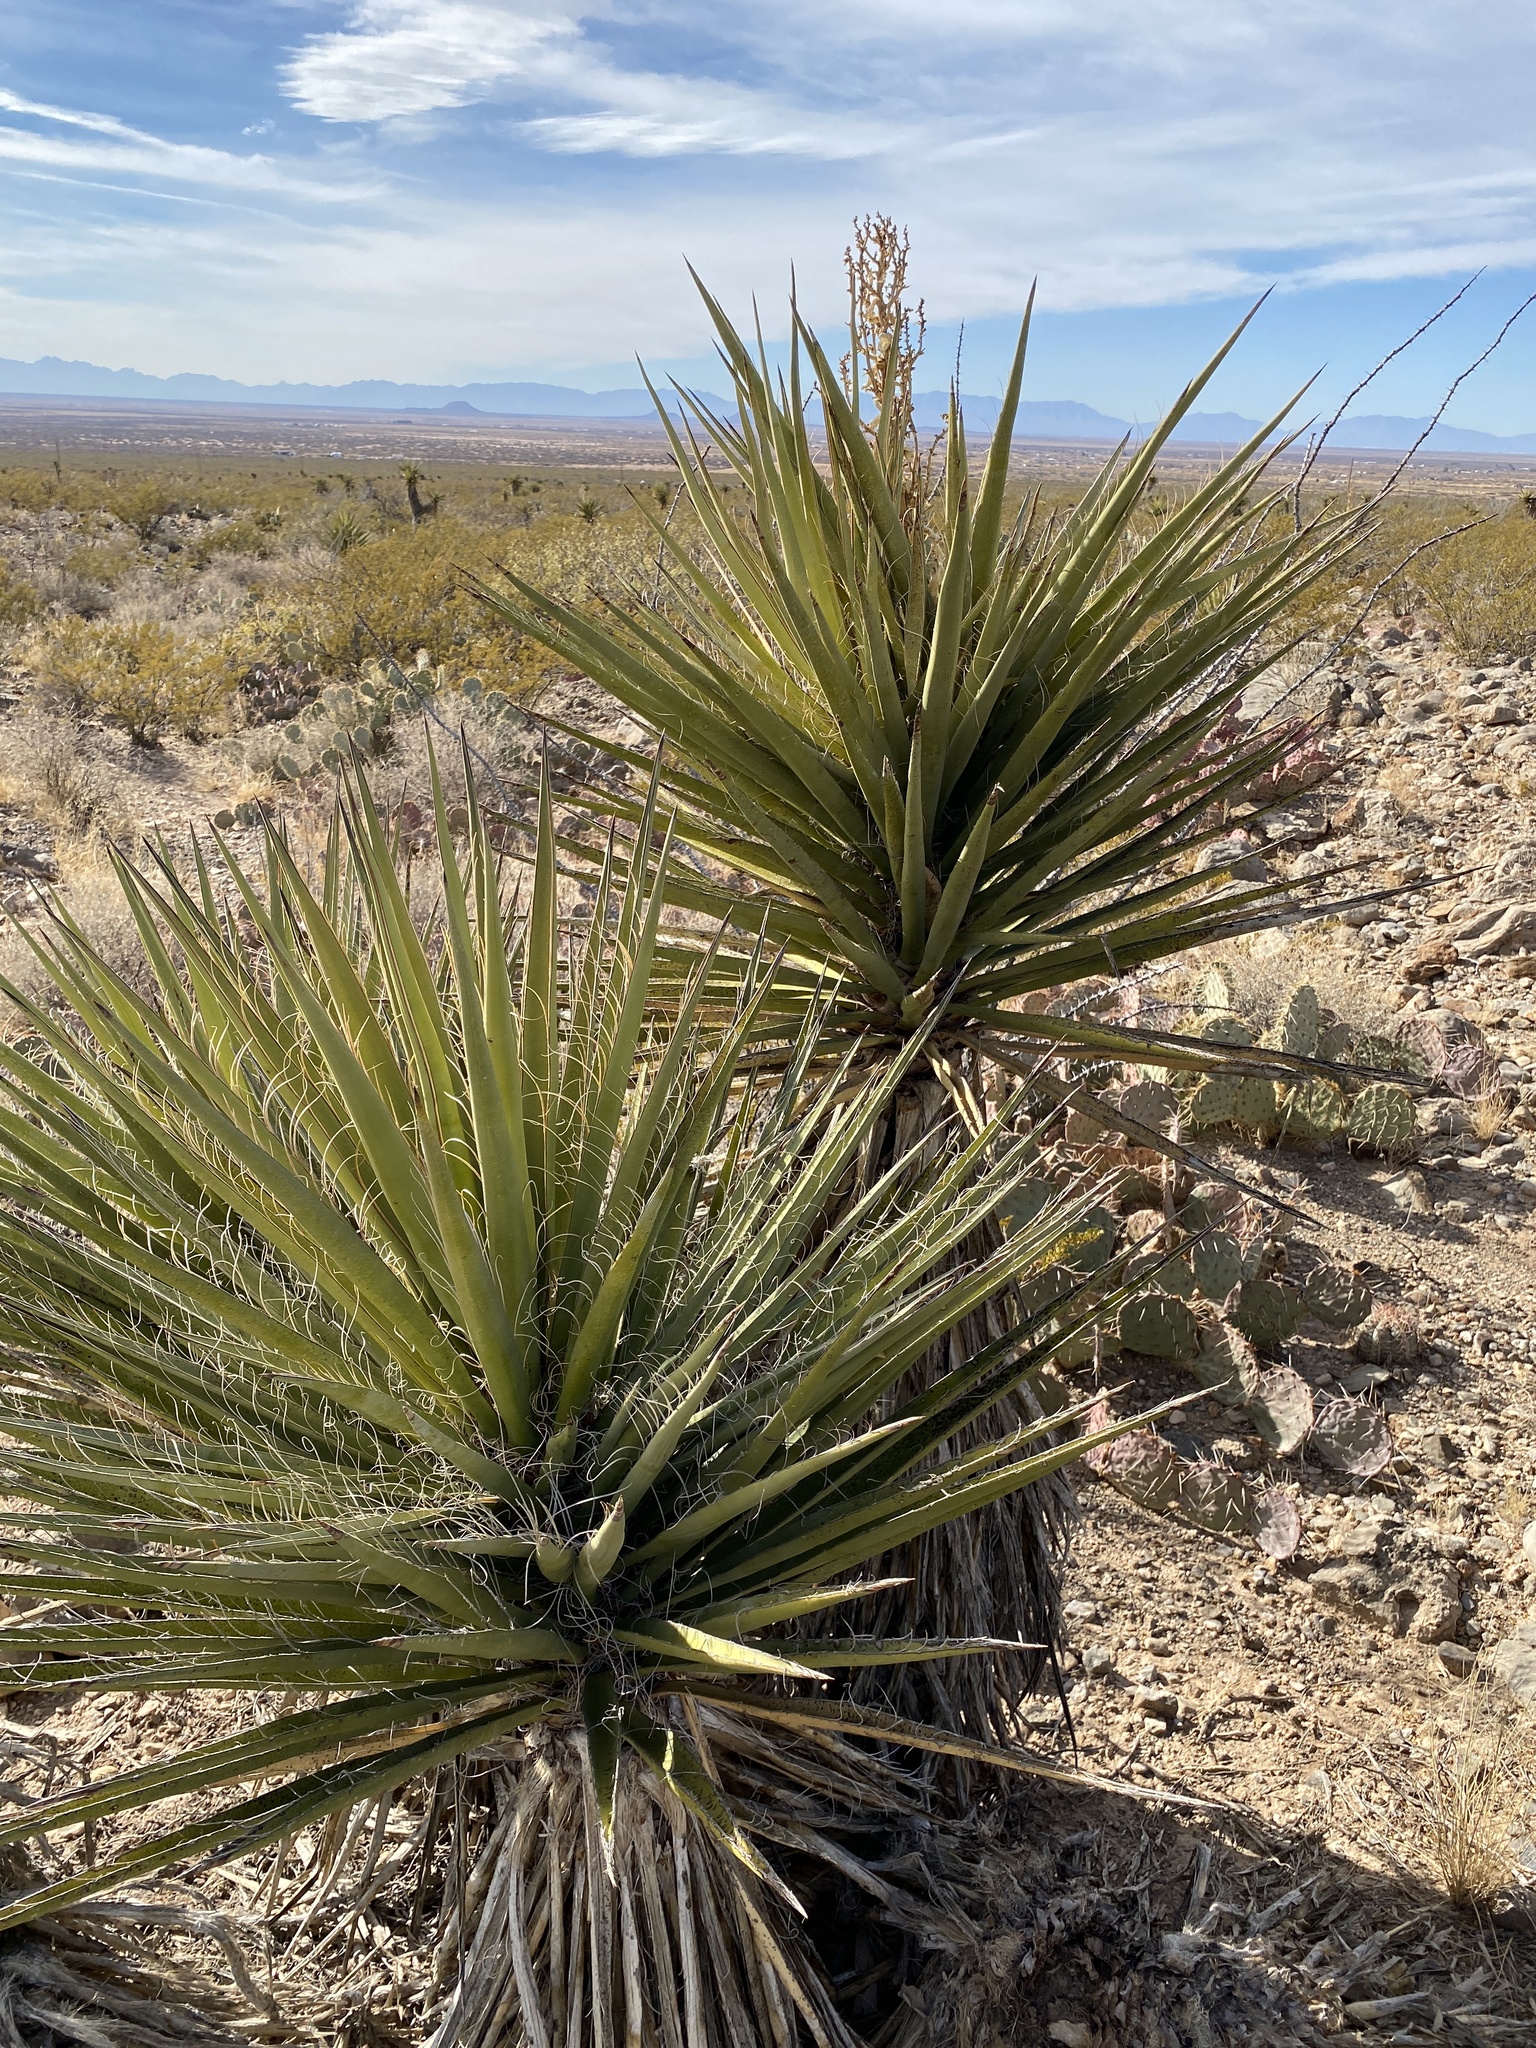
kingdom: Plantae
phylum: Tracheophyta
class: Liliopsida
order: Asparagales
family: Asparagaceae
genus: Yucca
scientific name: Yucca treculiana
